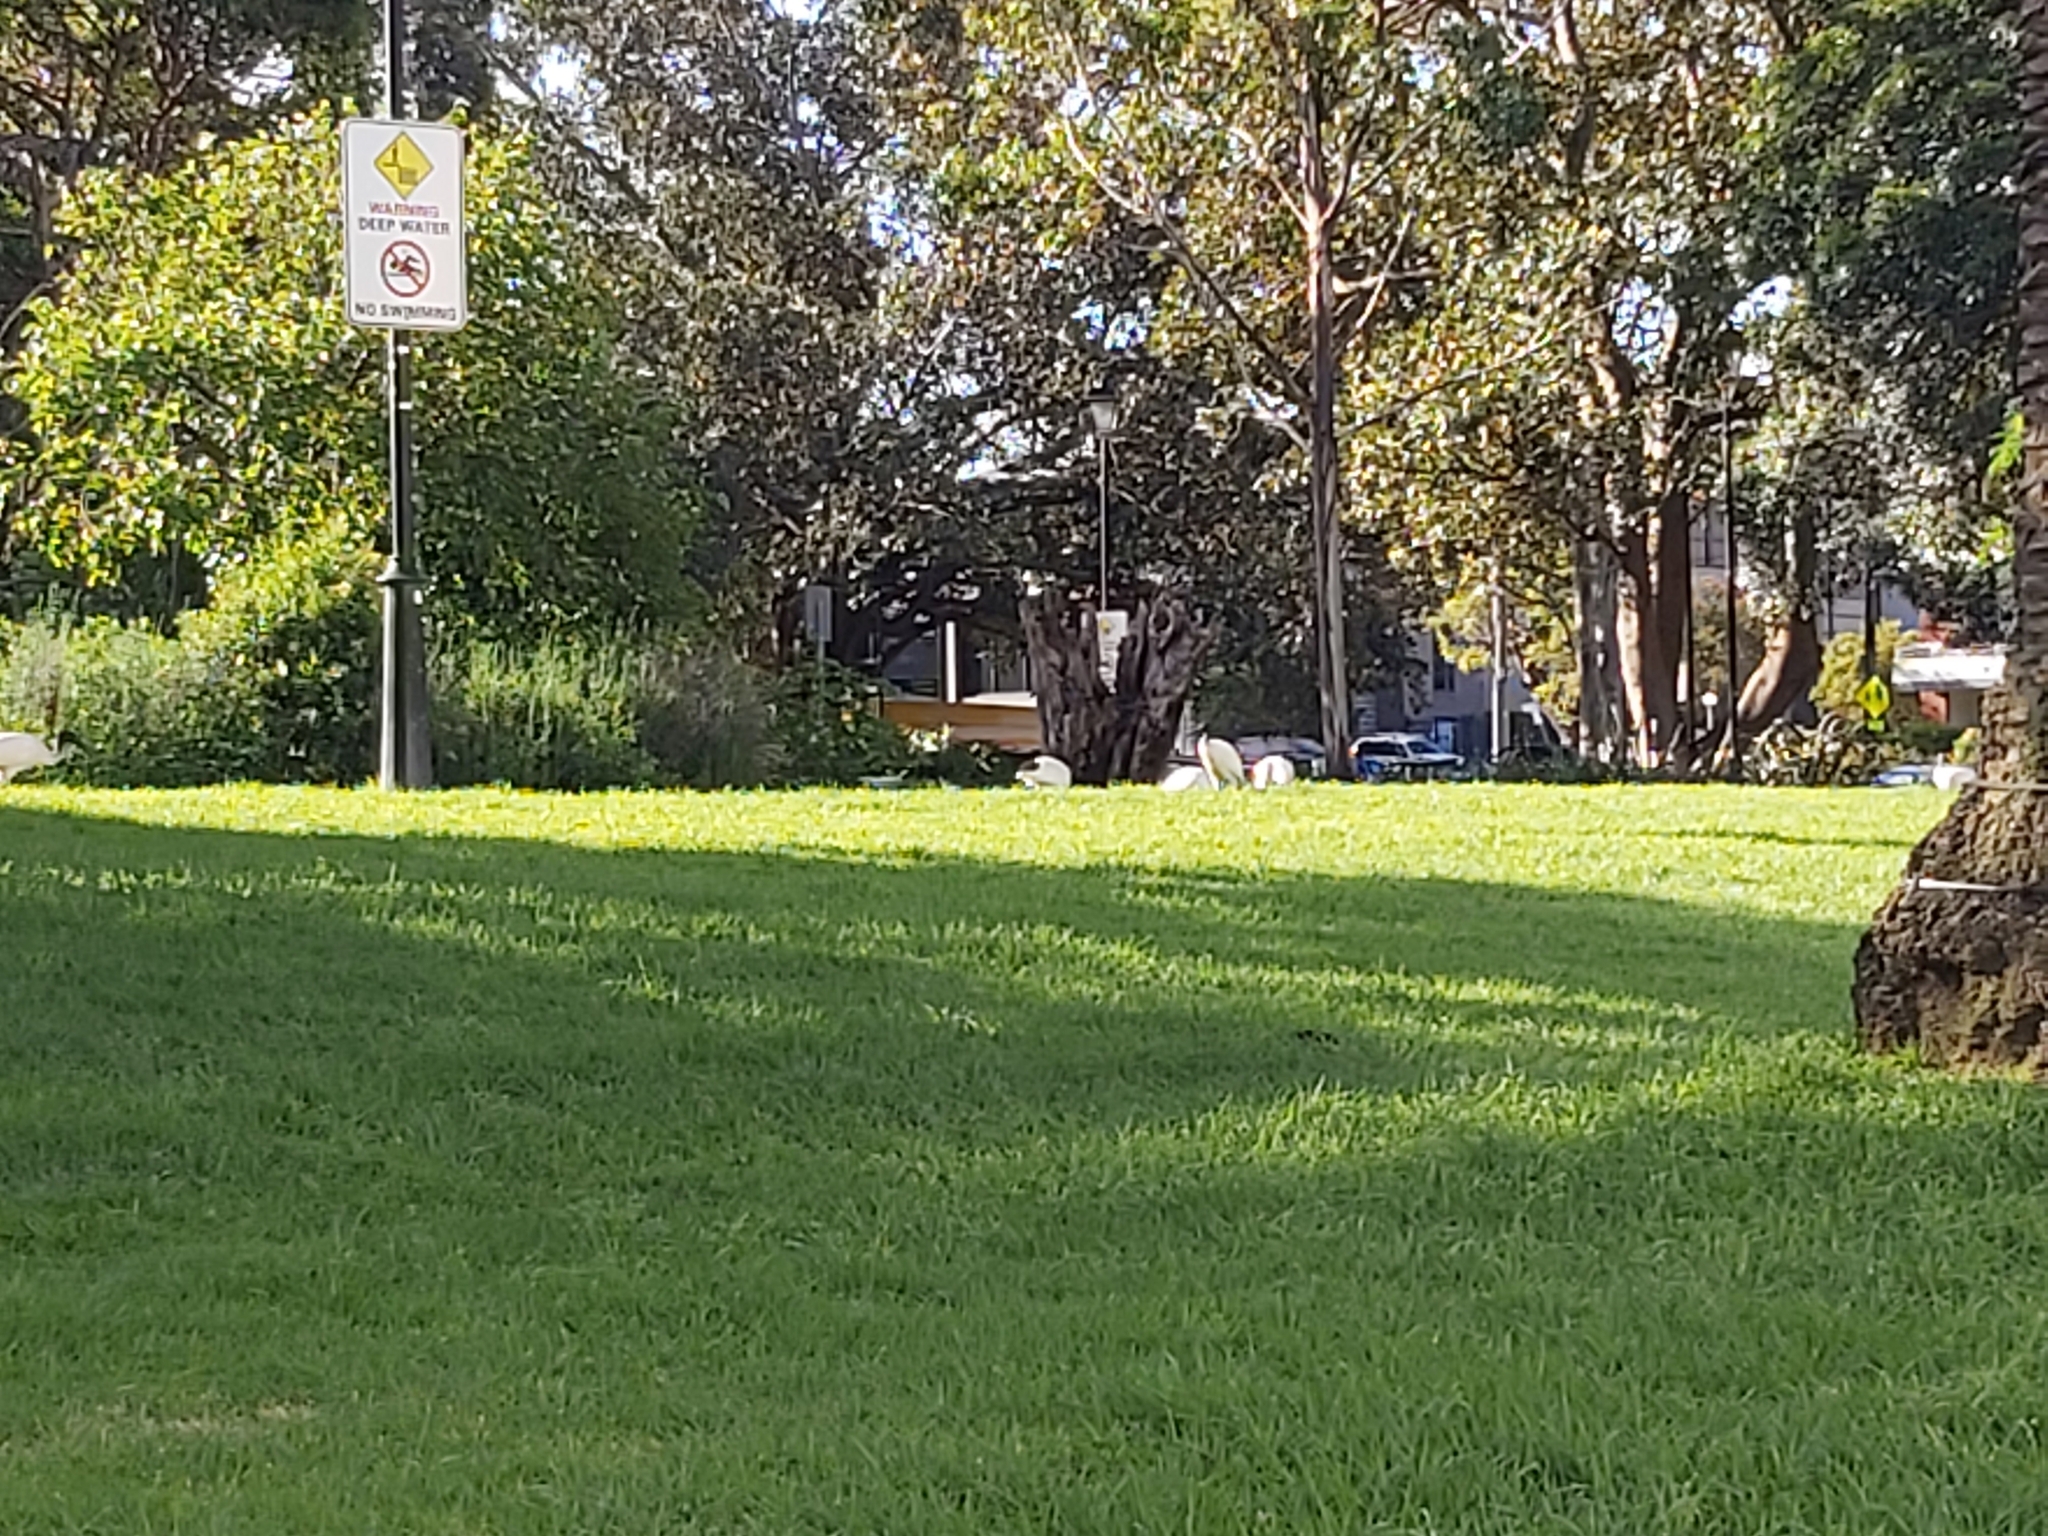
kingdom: Animalia
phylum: Chordata
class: Aves
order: Pelecaniformes
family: Threskiornithidae
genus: Threskiornis
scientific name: Threskiornis molucca
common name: Australian white ibis
